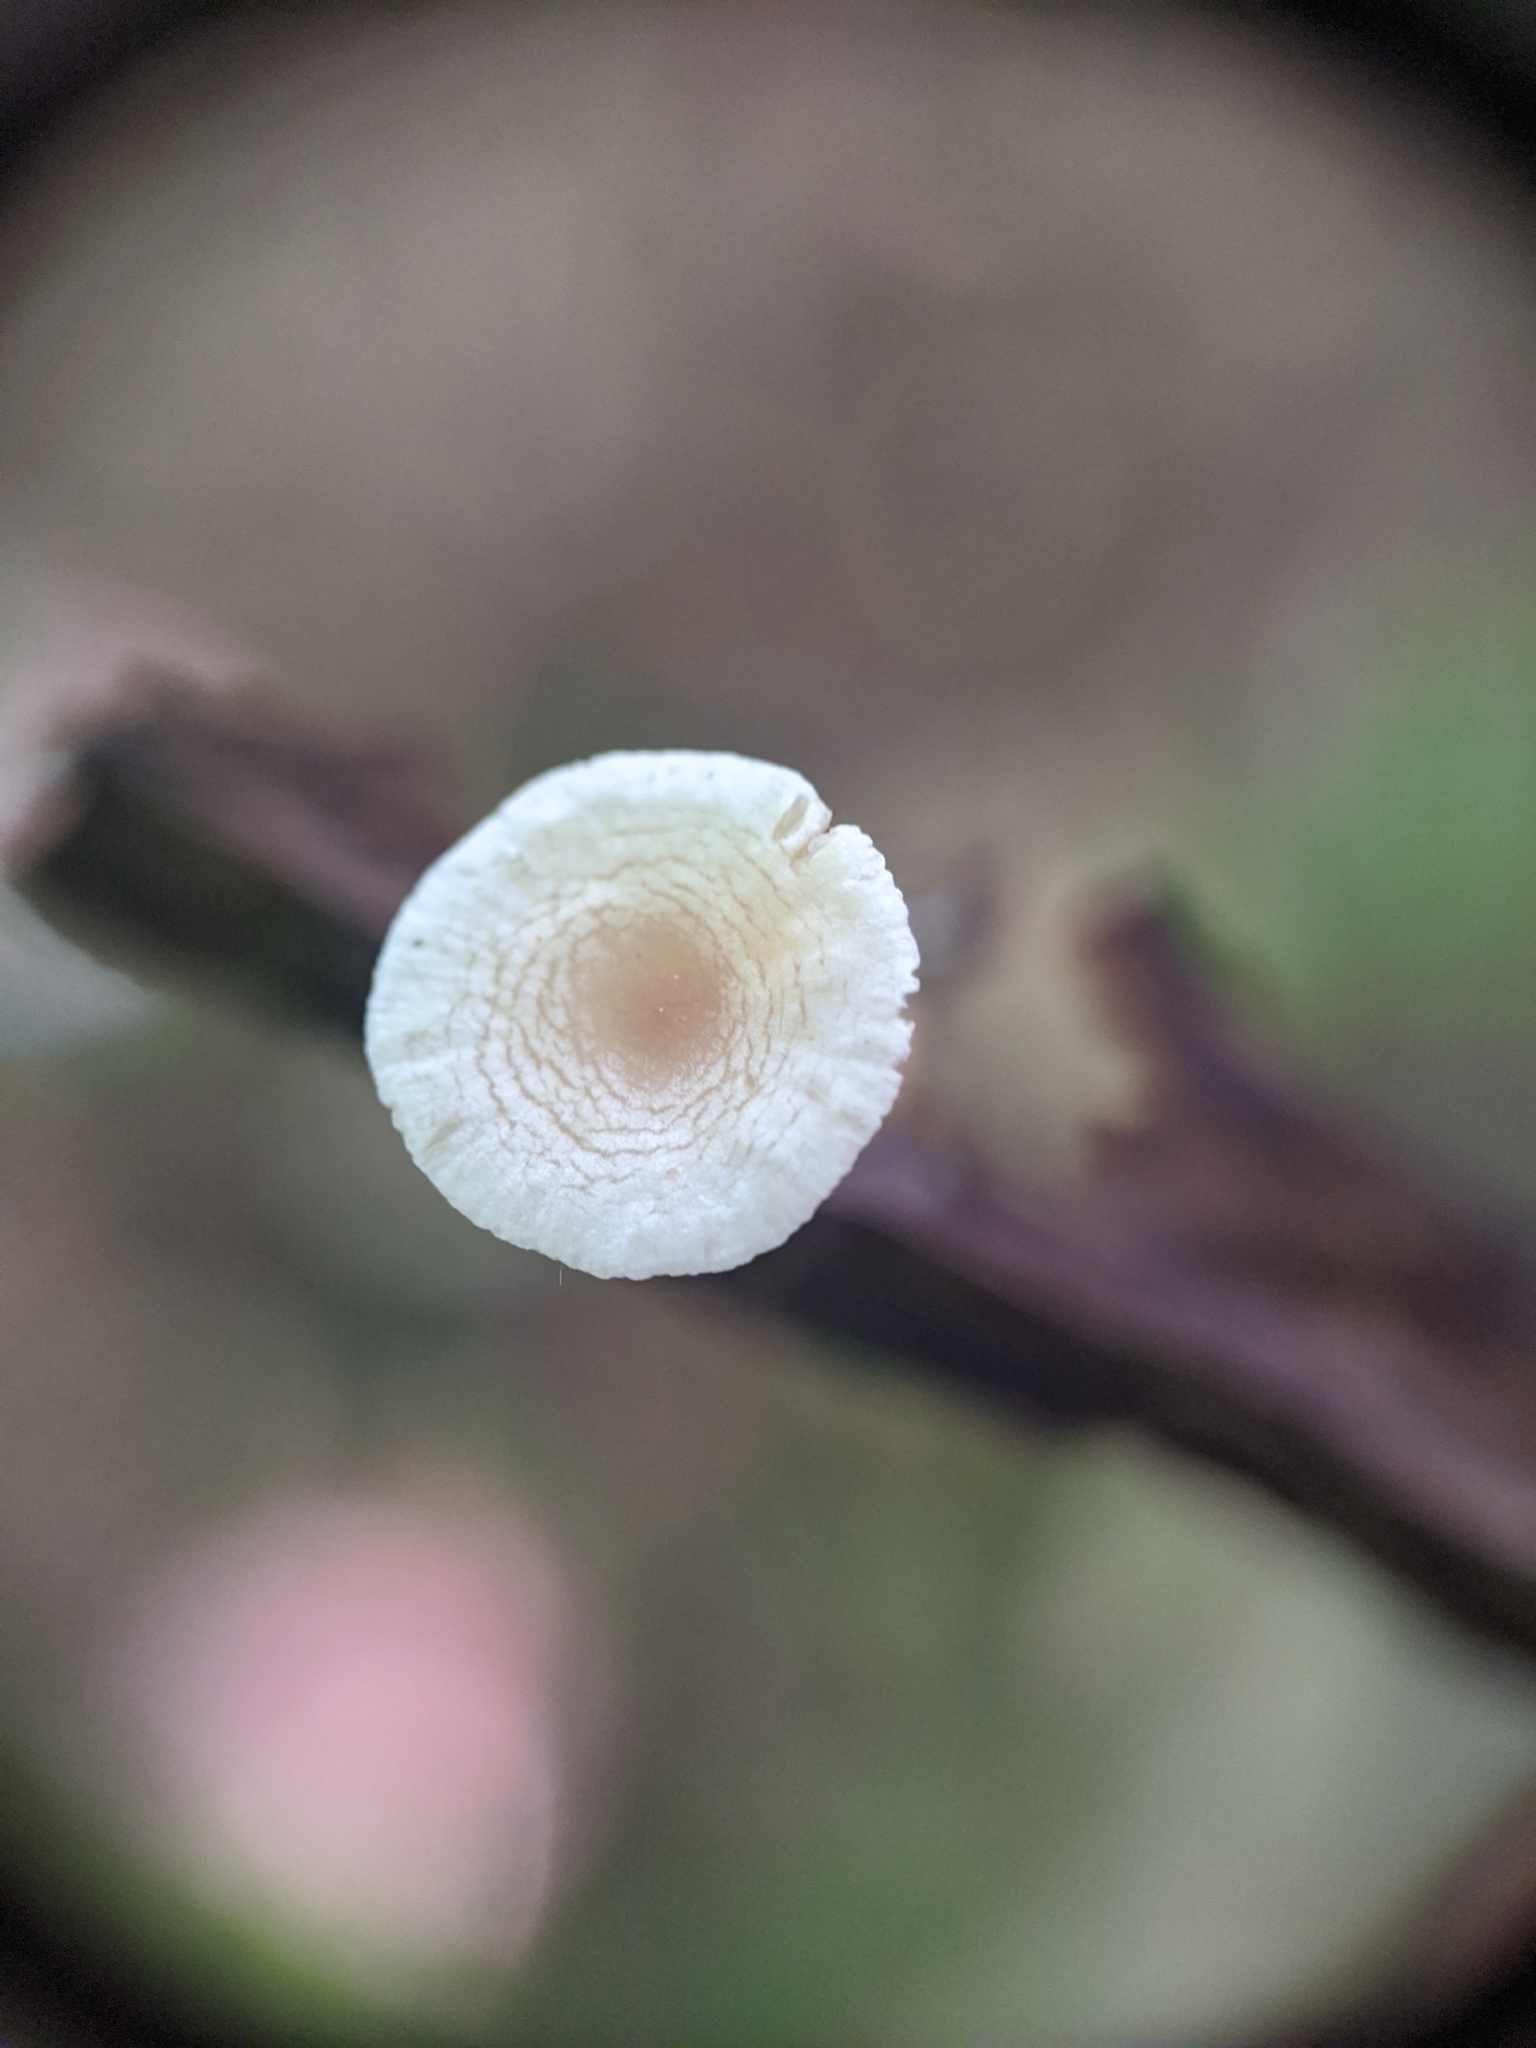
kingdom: Fungi
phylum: Basidiomycota
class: Agaricomycetes
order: Agaricales
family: Tricholomataceae
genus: Collybia
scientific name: Collybia tuberosa
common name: Lentil shanklet
